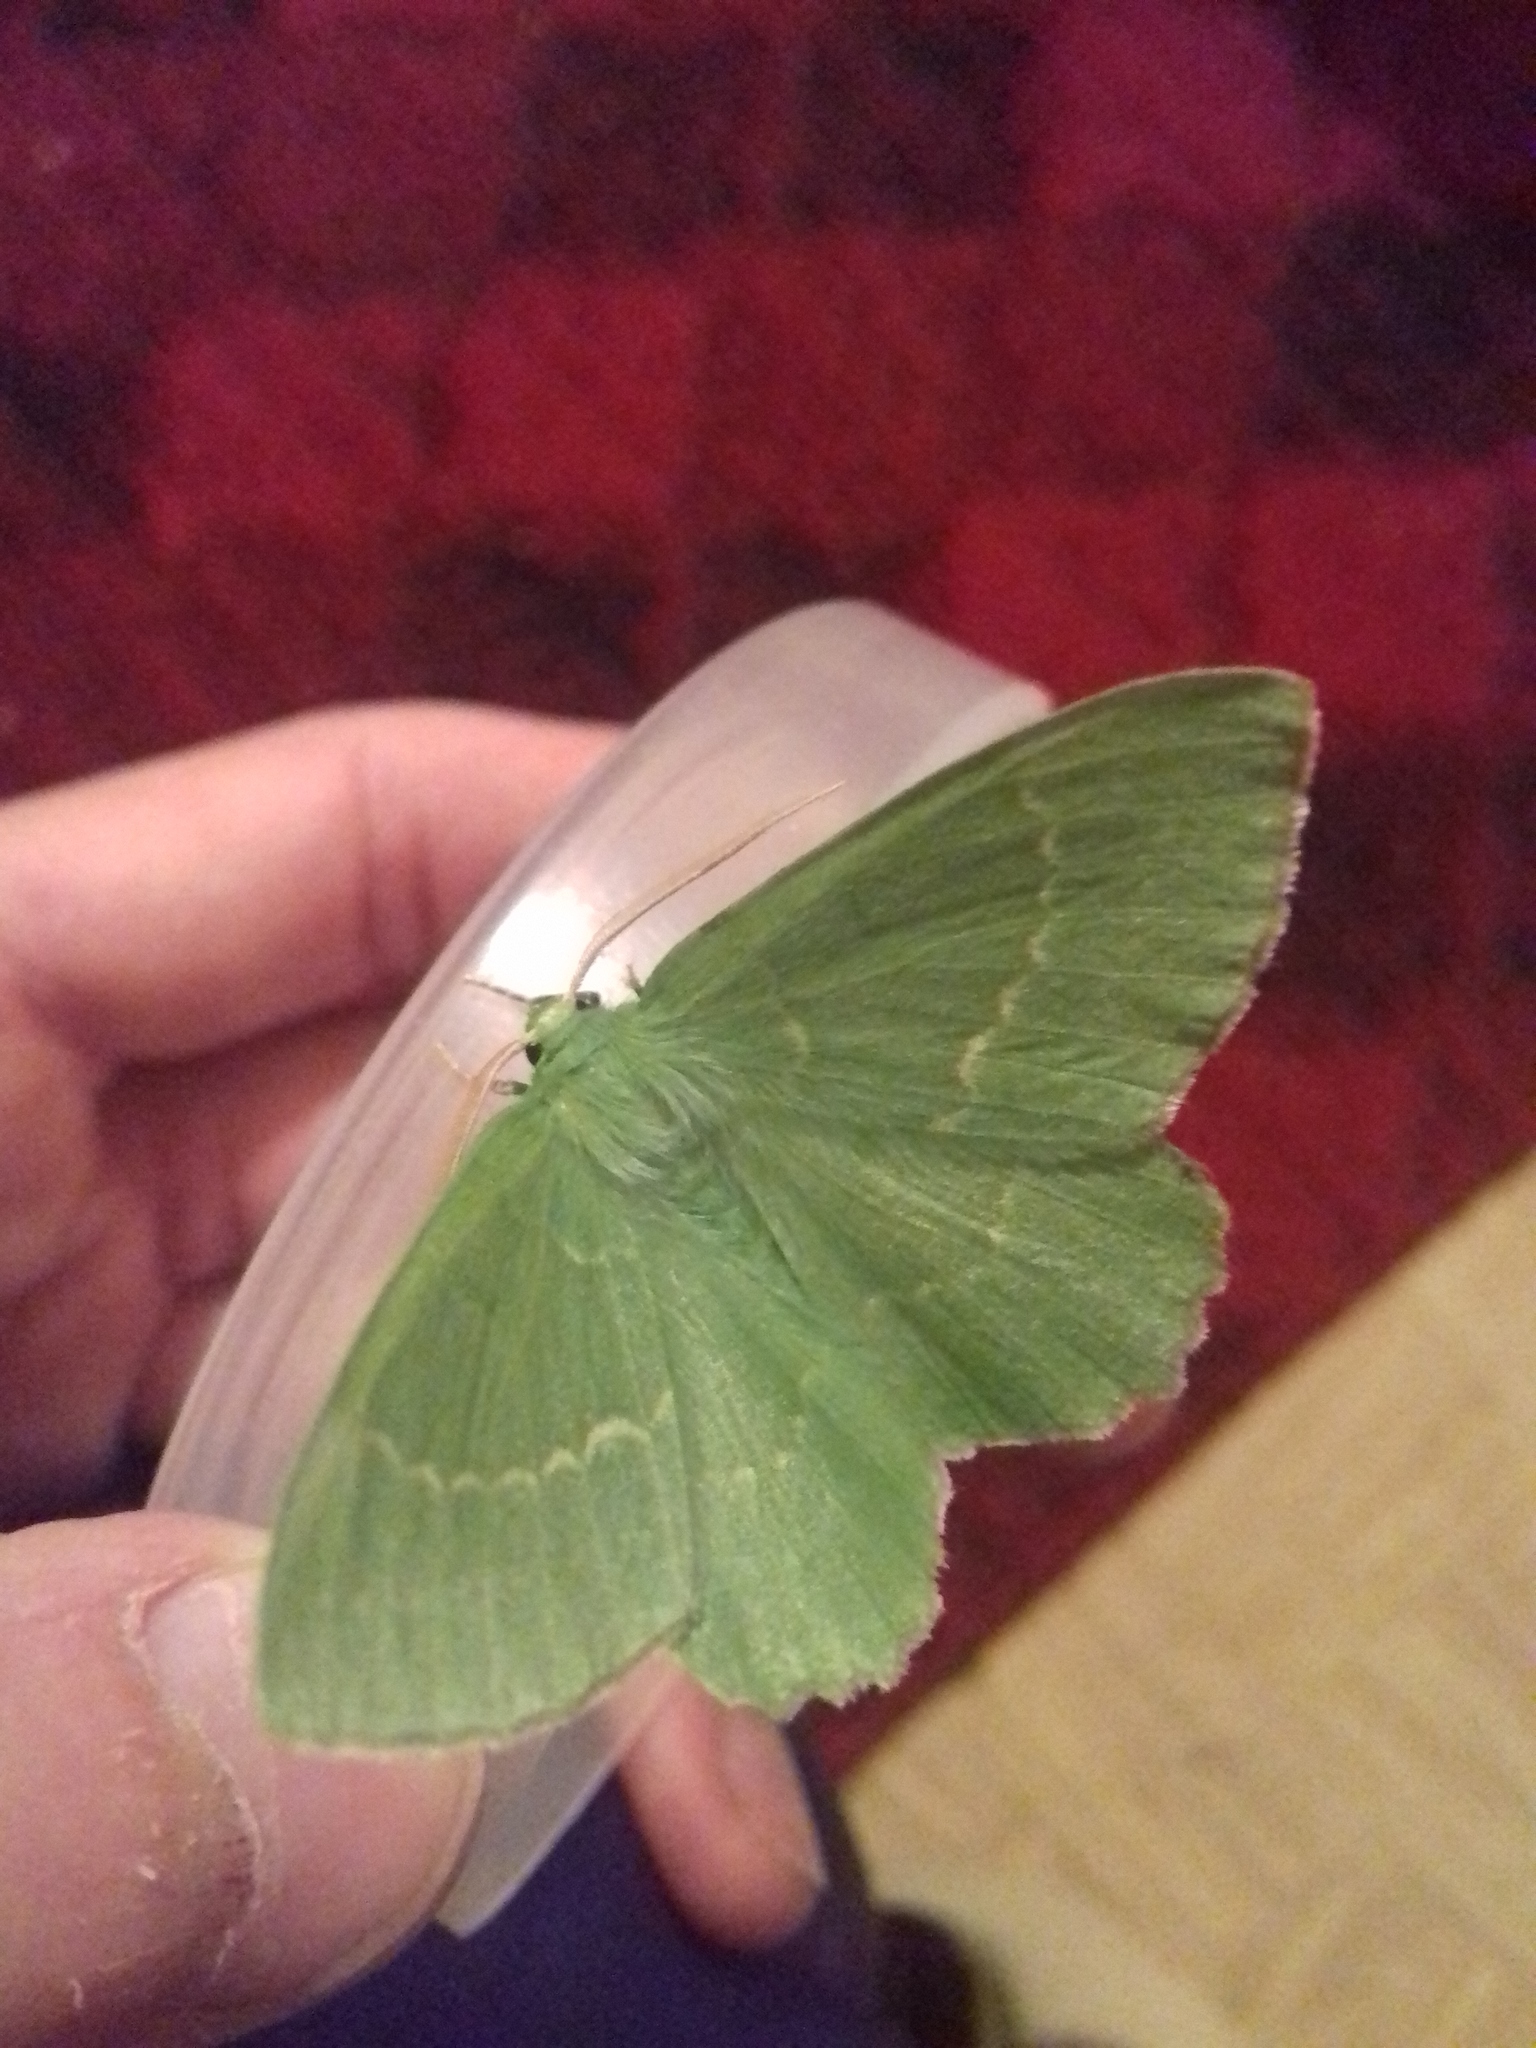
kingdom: Animalia
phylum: Arthropoda
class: Insecta
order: Lepidoptera
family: Geometridae
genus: Geometra
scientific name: Geometra papilionaria
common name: Large emerald
